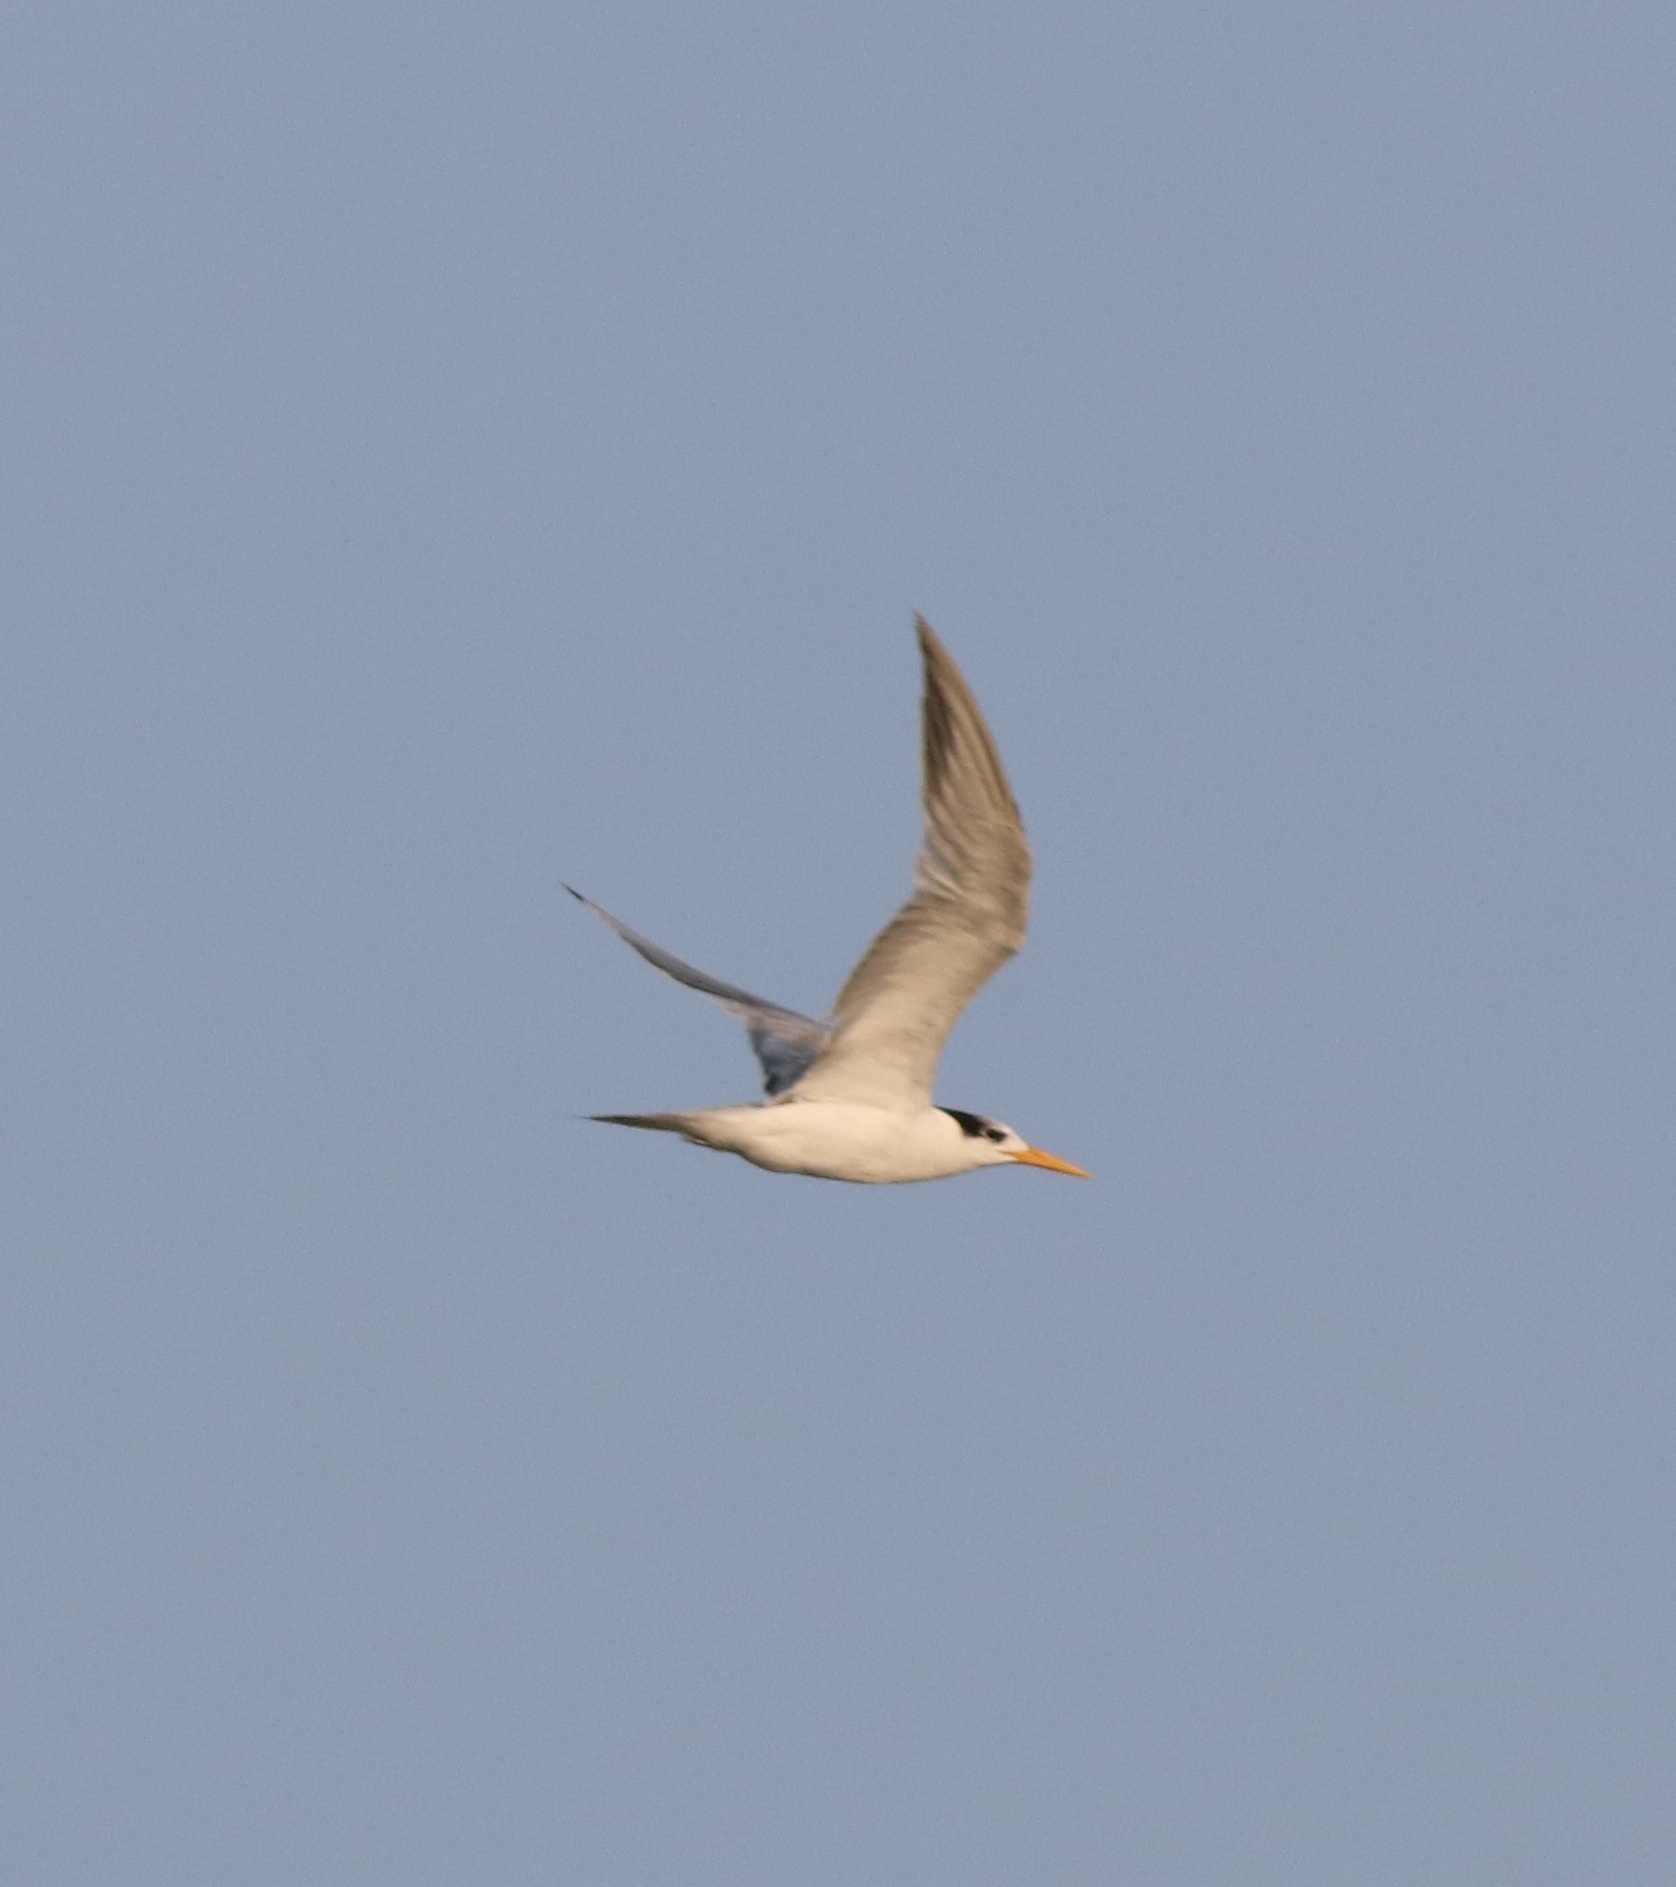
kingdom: Animalia
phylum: Chordata
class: Aves
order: Charadriiformes
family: Laridae
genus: Thalasseus
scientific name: Thalasseus bengalensis
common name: Lesser crested tern
